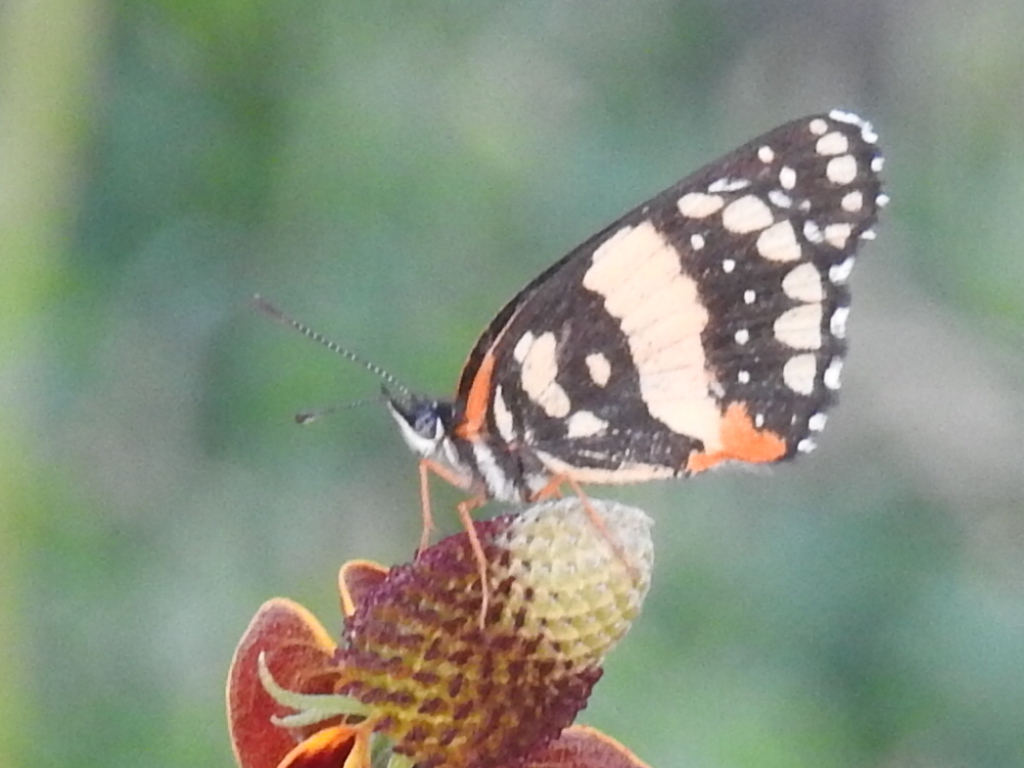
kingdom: Animalia
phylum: Arthropoda
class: Insecta
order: Lepidoptera
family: Nymphalidae
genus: Chlosyne
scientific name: Chlosyne lacinia
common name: Bordered patch
